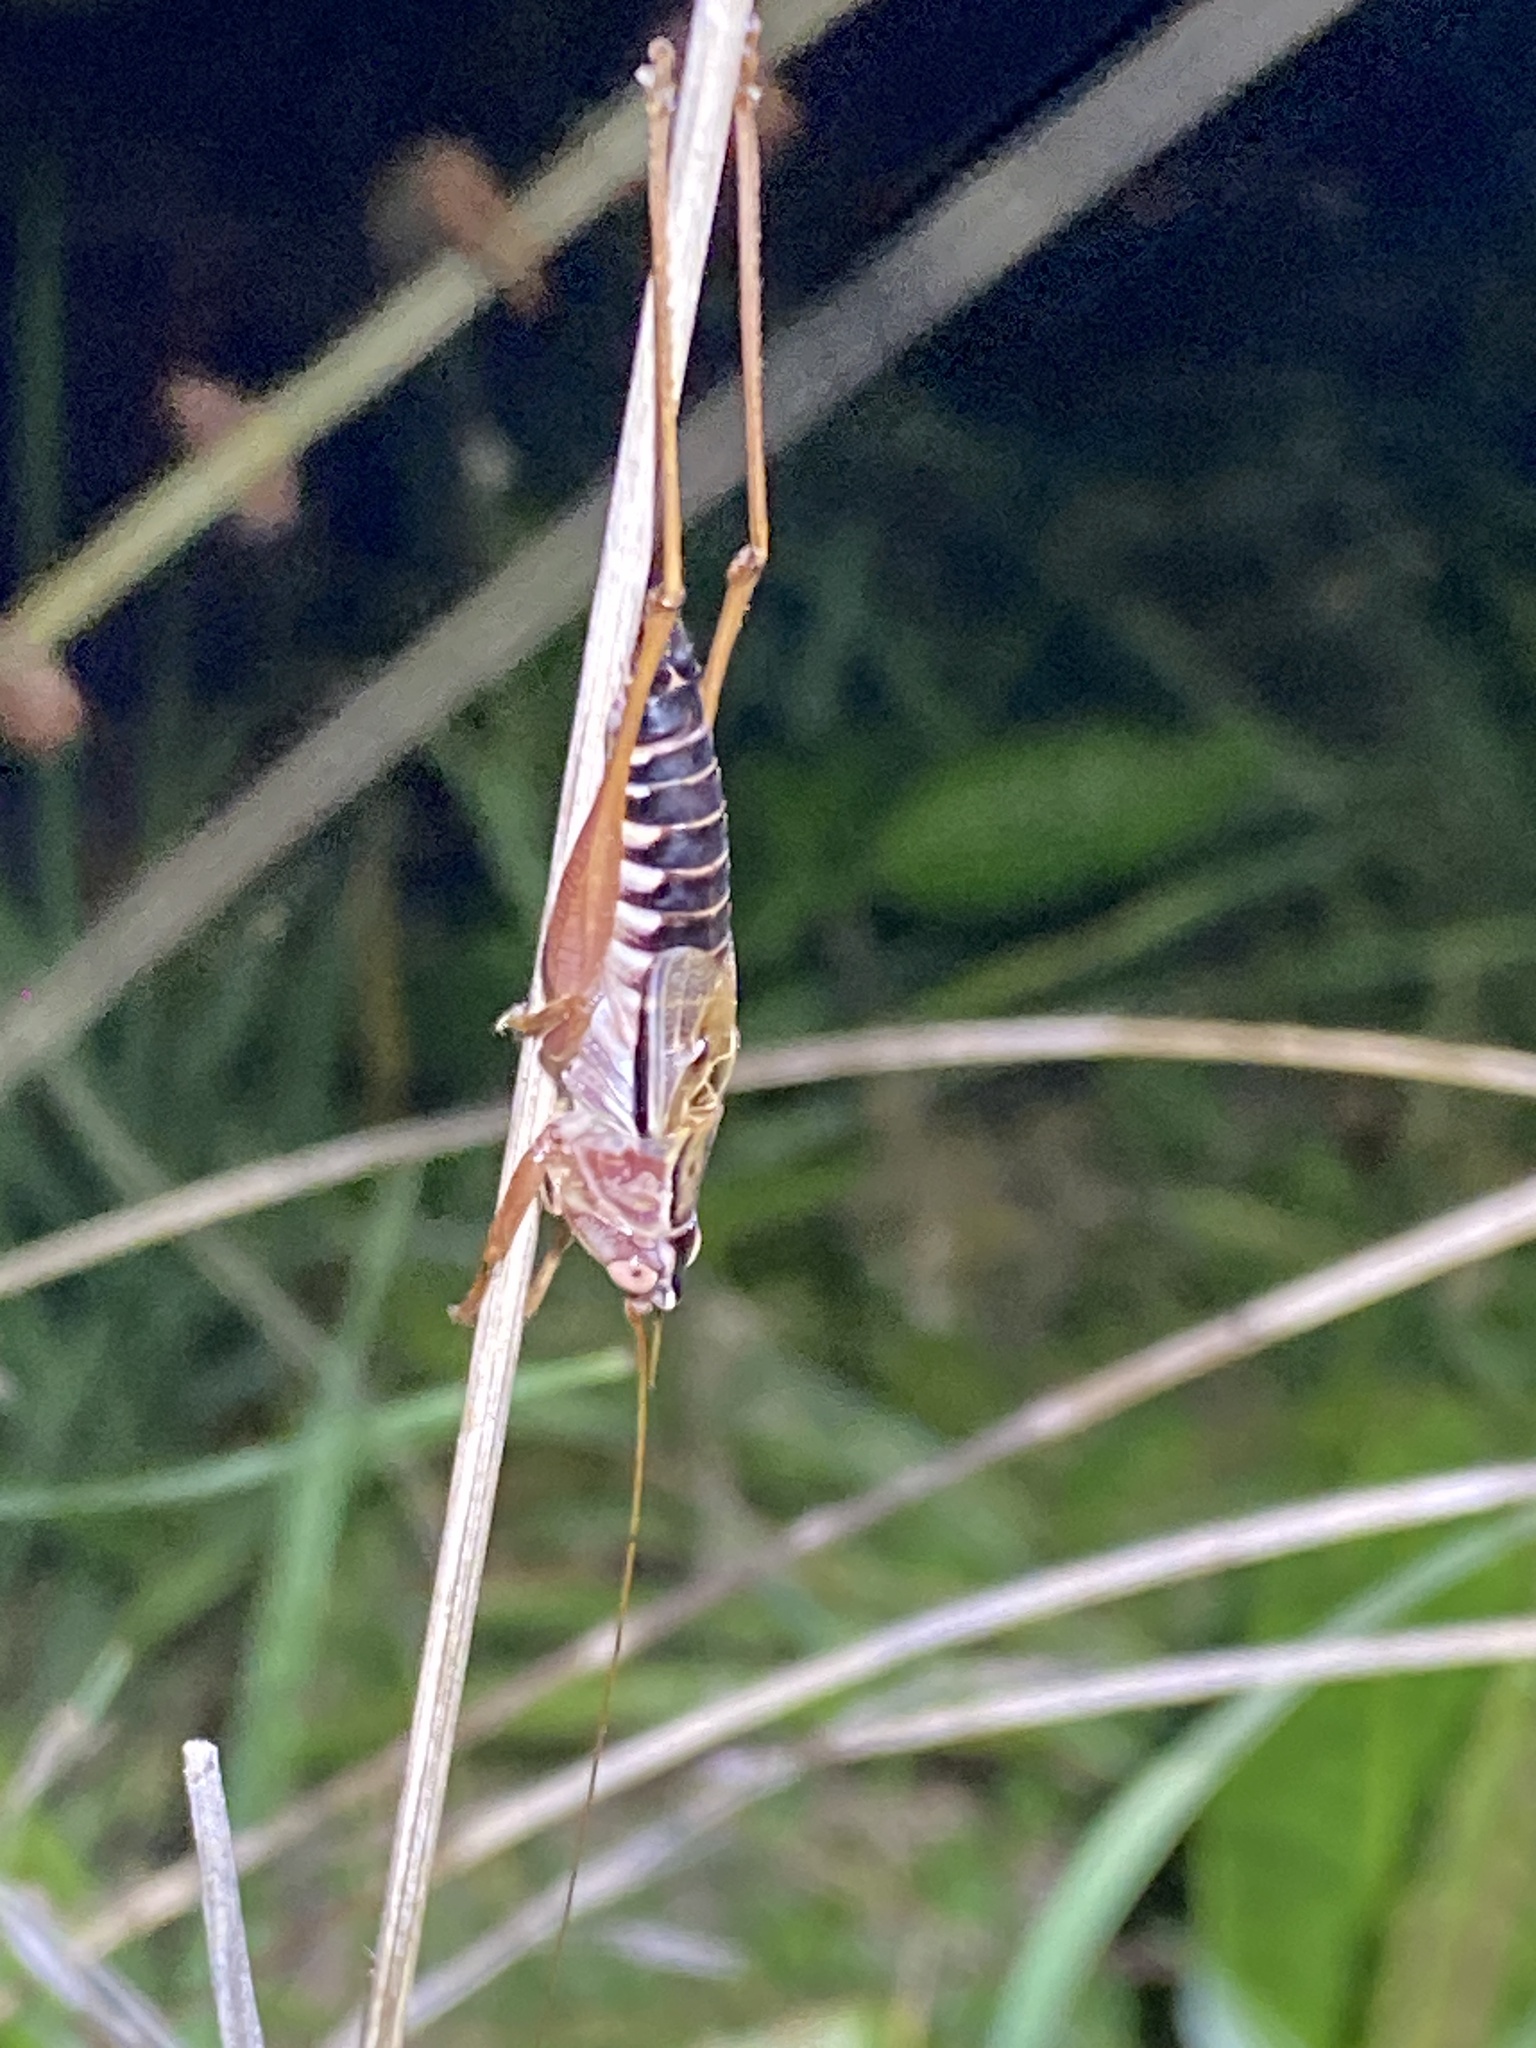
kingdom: Animalia
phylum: Arthropoda
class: Insecta
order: Orthoptera
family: Tettigoniidae
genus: Conocephalus
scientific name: Conocephalus semivittatus
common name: Blackish meadow katydid
